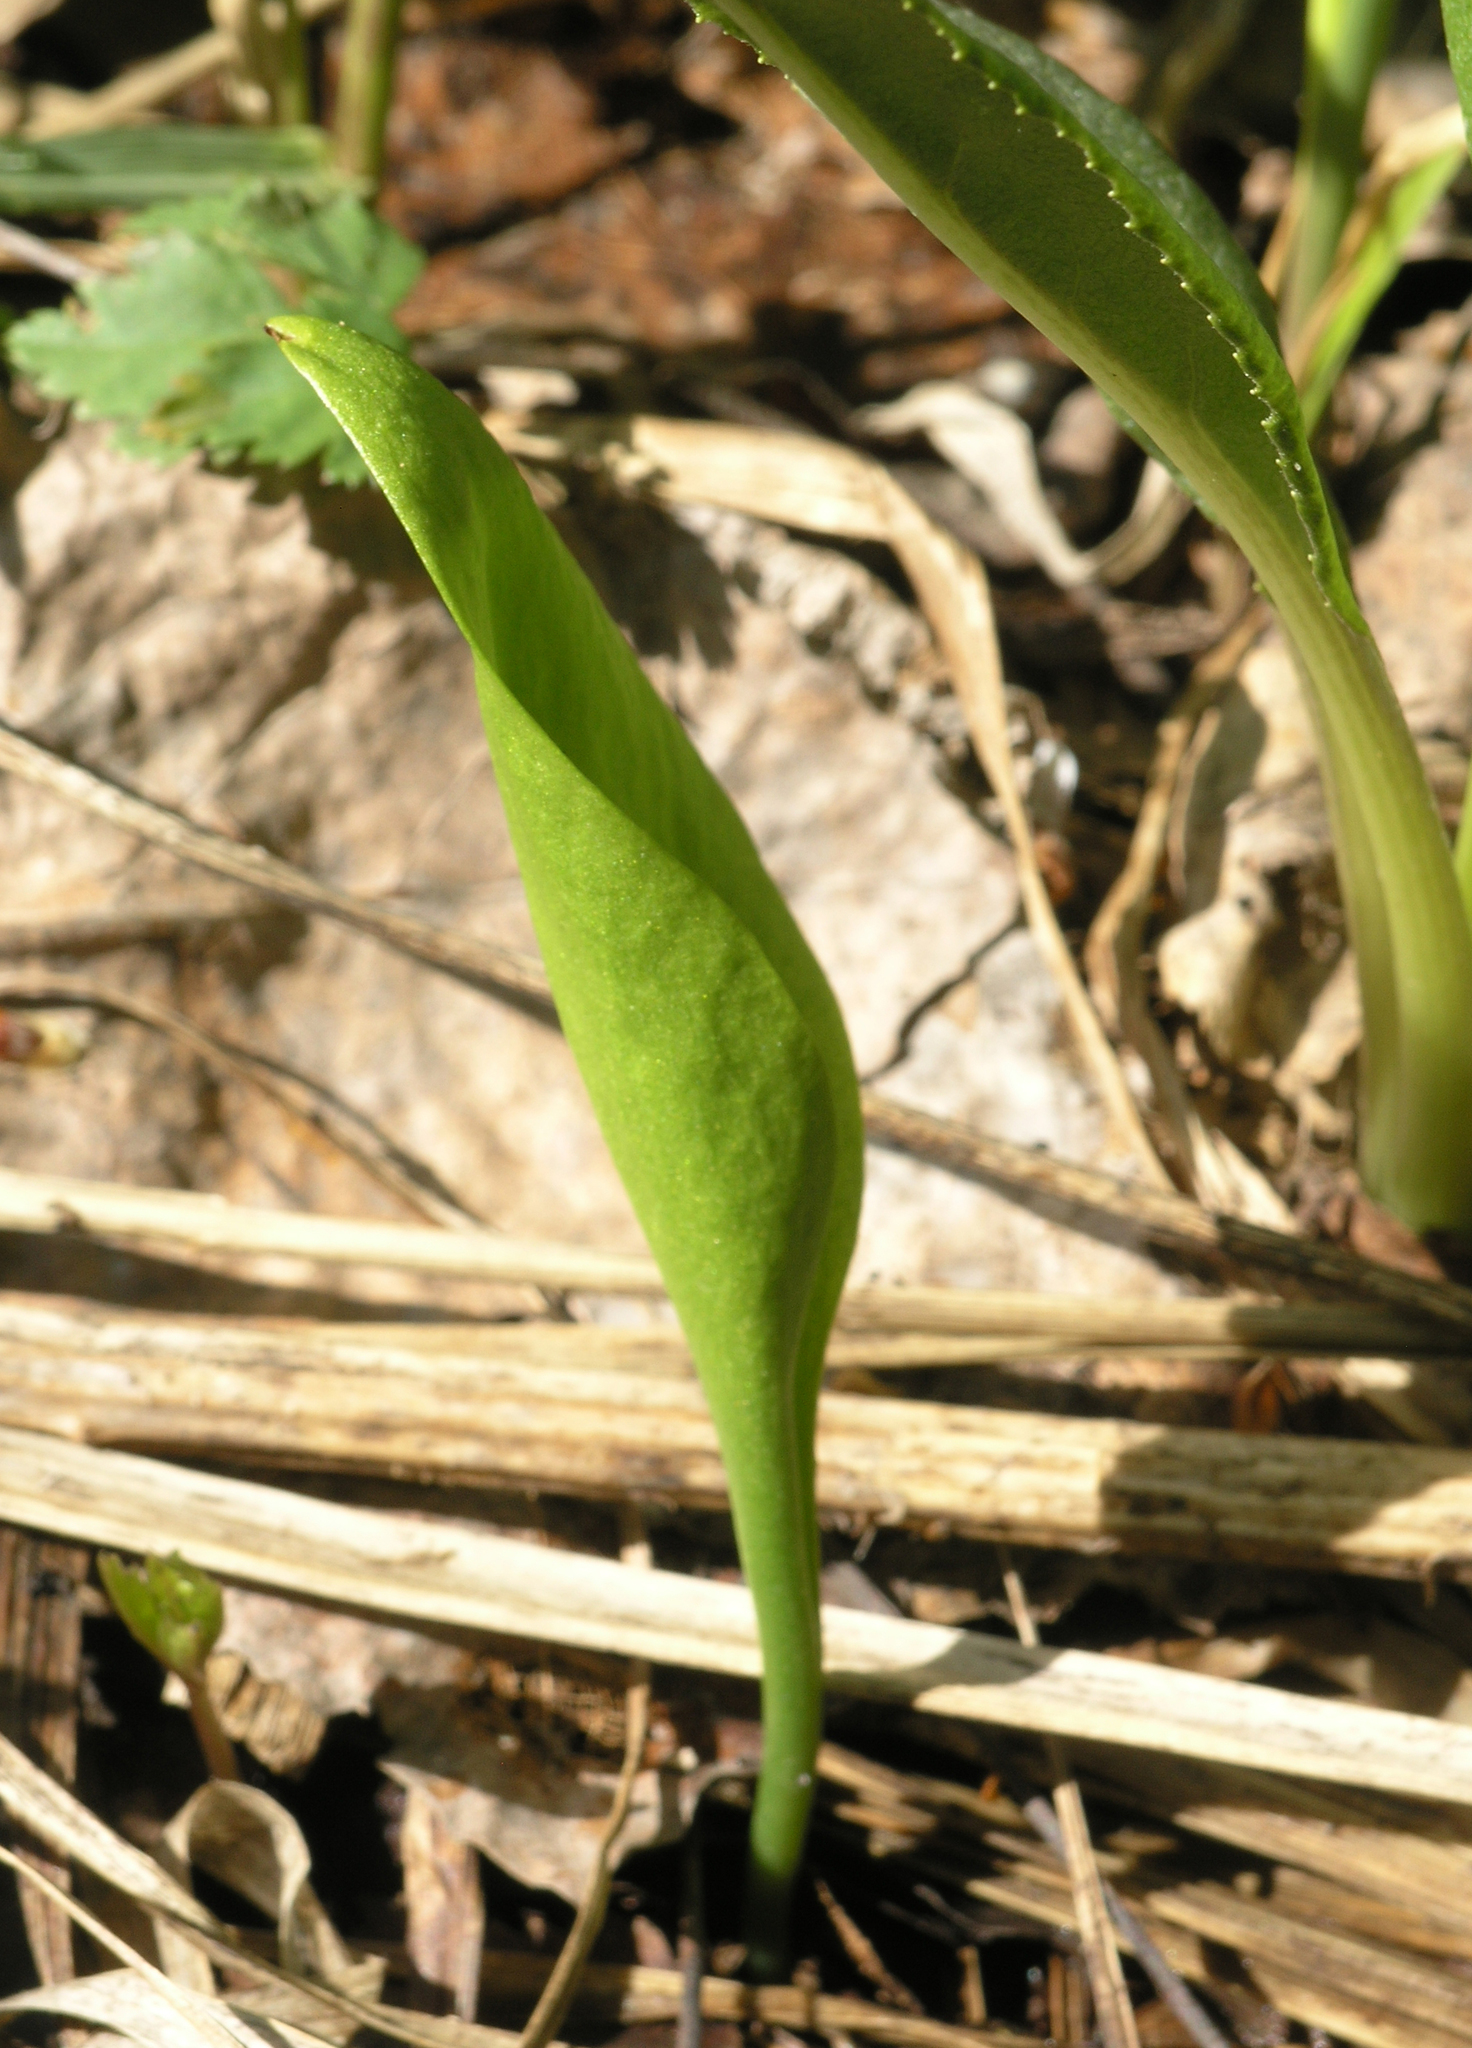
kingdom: Plantae
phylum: Tracheophyta
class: Polypodiopsida
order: Ophioglossales
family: Ophioglossaceae
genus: Ophioglossum
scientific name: Ophioglossum vulgatum
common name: Adder's-tongue
